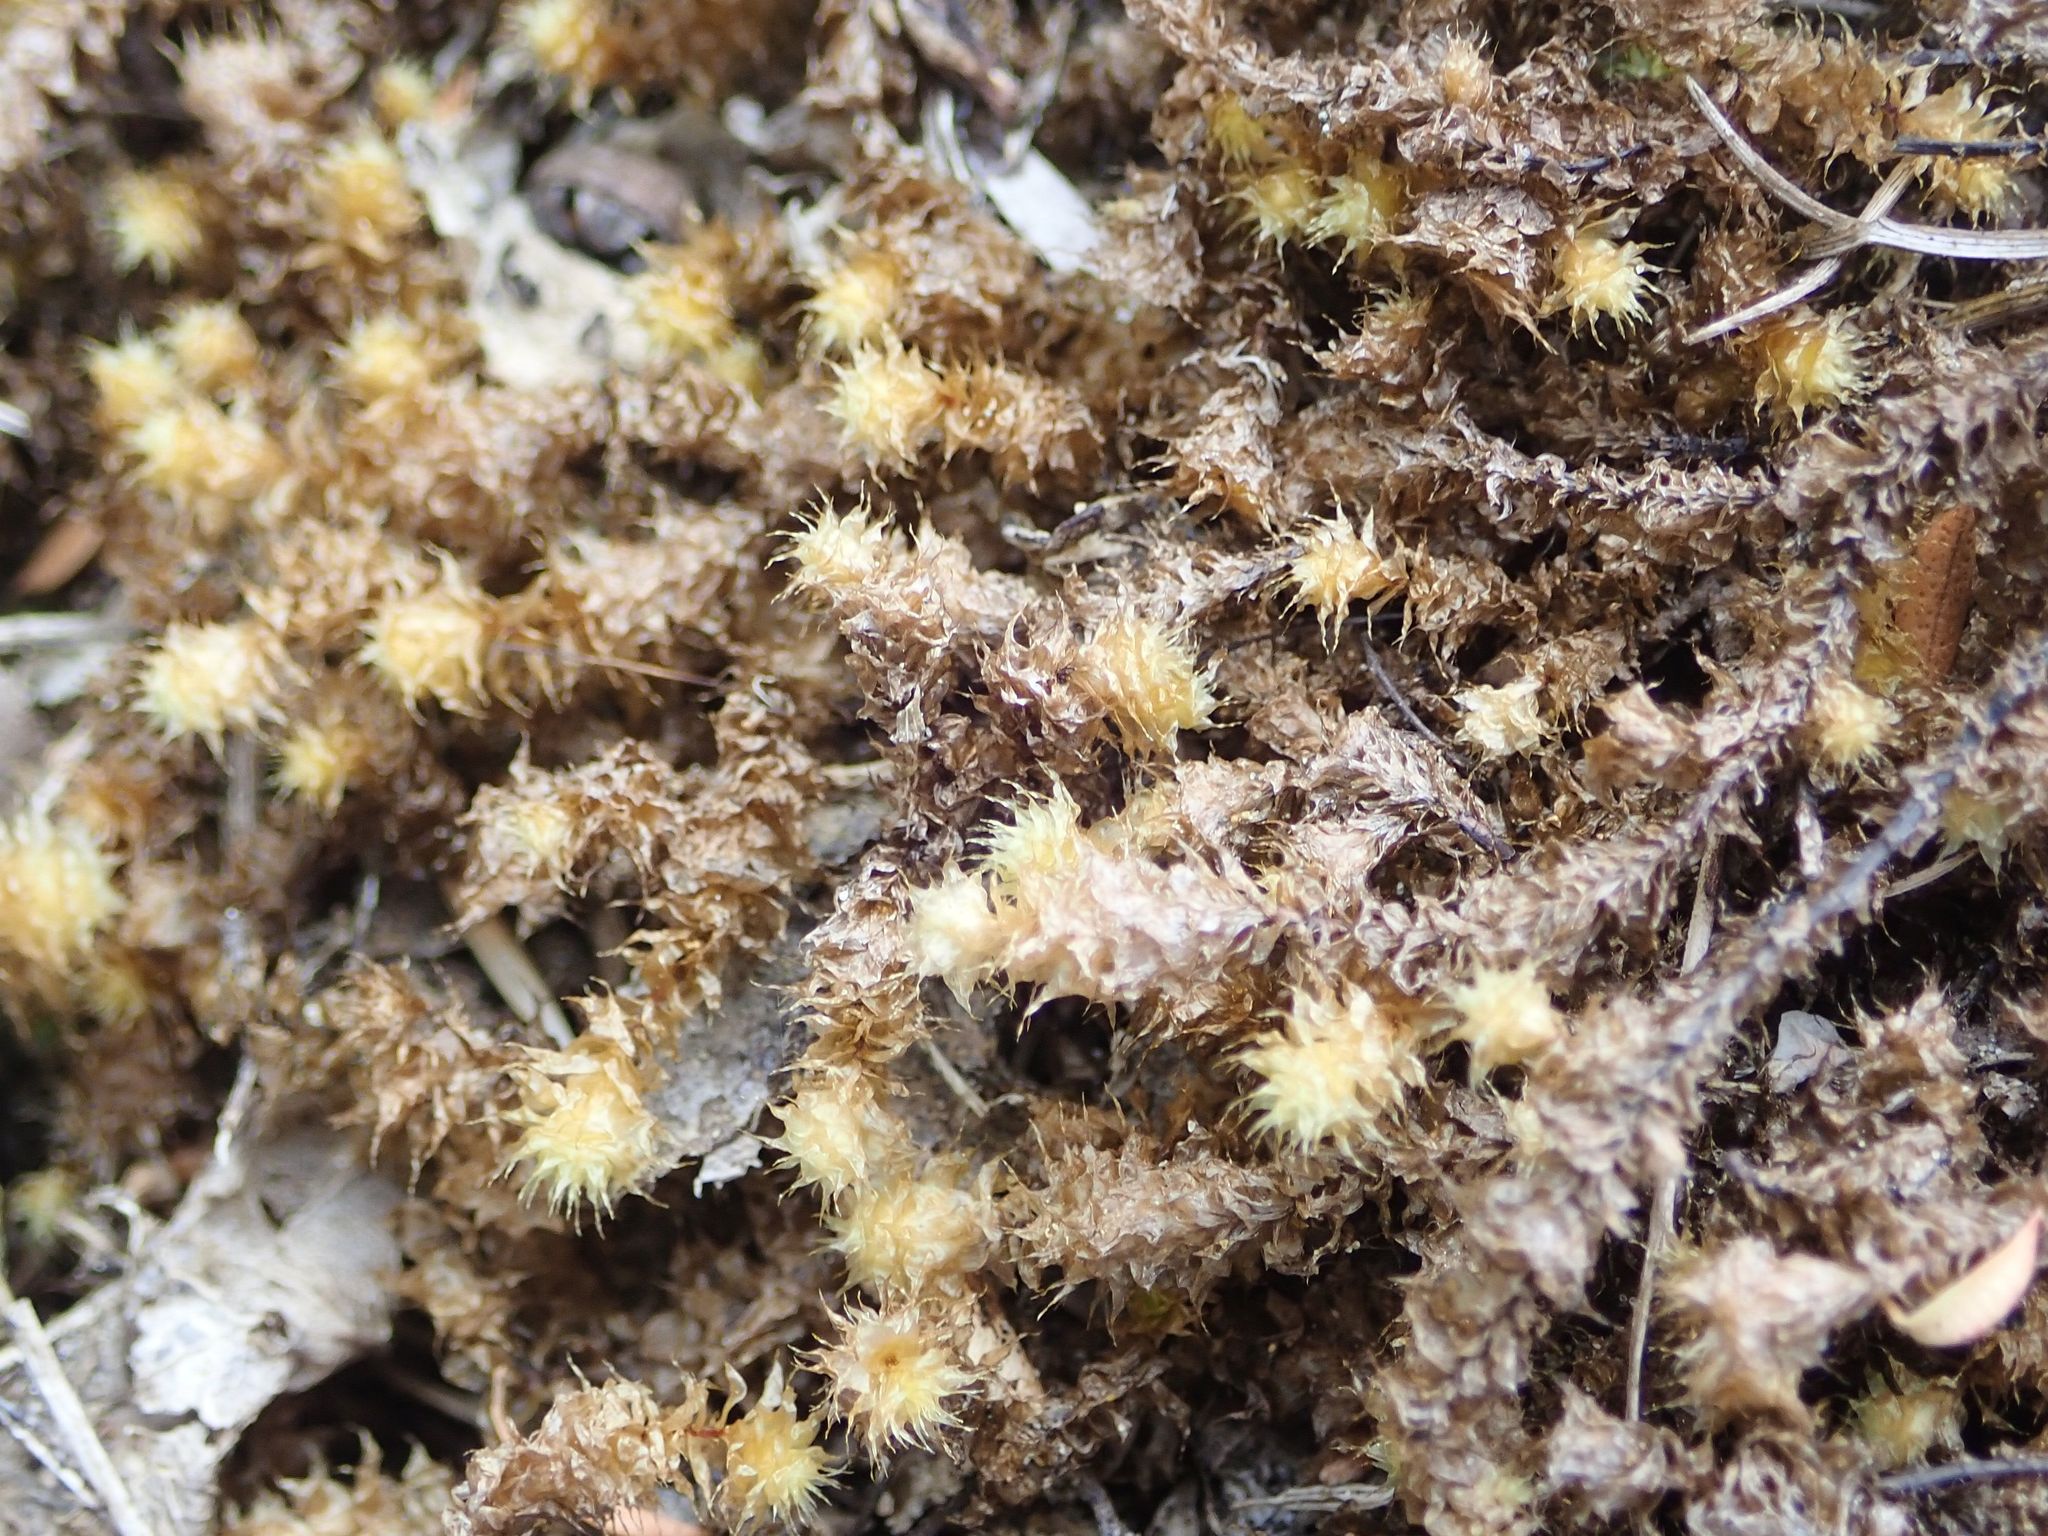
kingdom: Plantae
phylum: Bryophyta
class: Bryopsida
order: Ptychomniales
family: Ptychomniaceae
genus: Ptychomnion
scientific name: Ptychomnion aciculare
